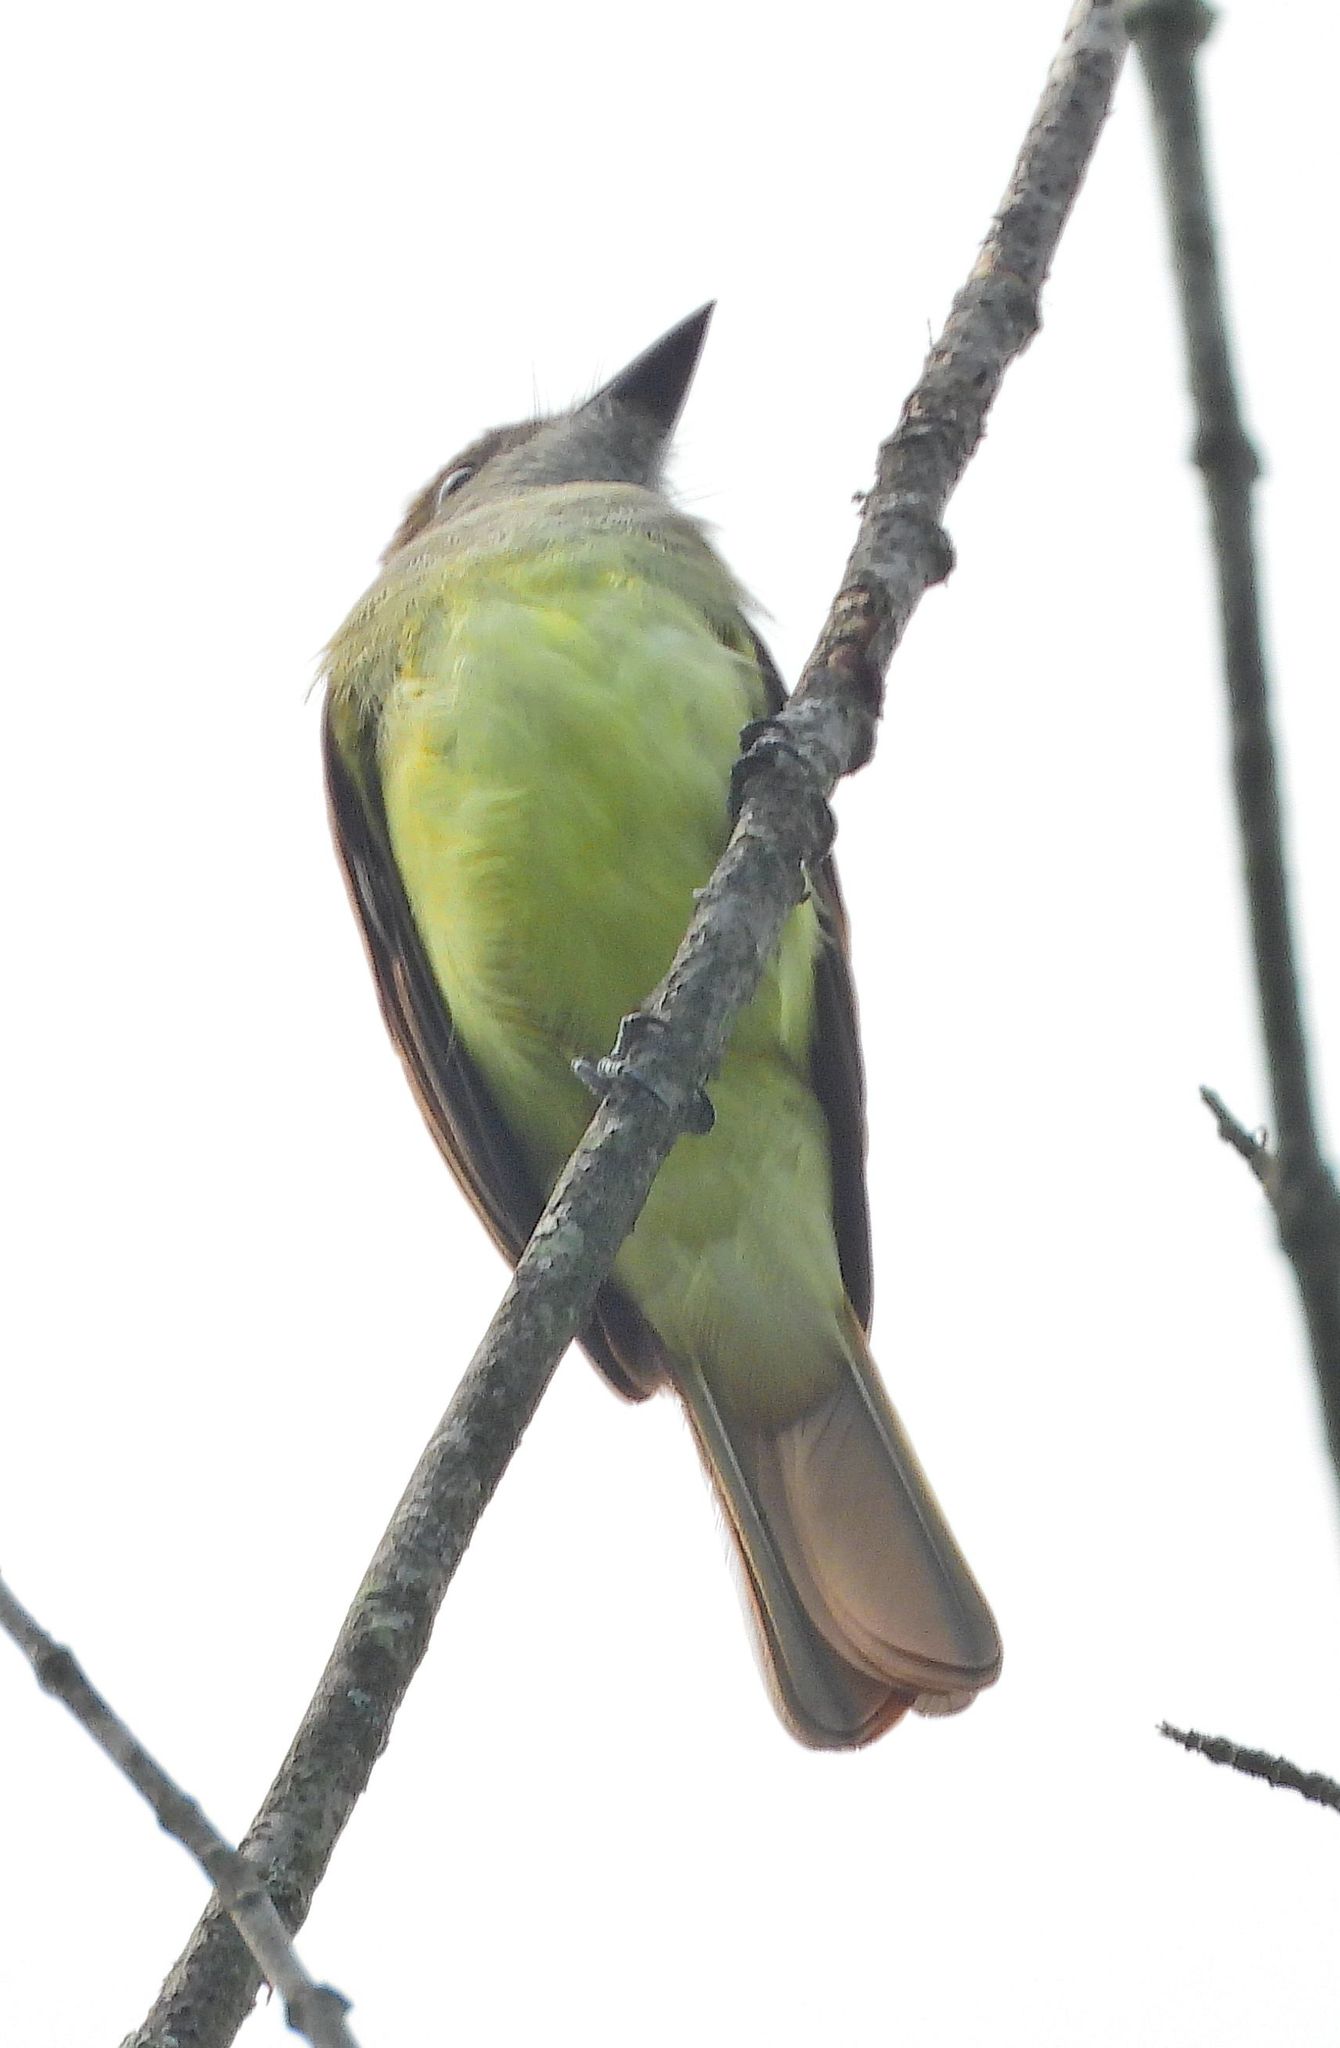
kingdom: Animalia
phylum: Chordata
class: Aves
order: Passeriformes
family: Tyrannidae
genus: Myiarchus
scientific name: Myiarchus crinitus
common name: Great crested flycatcher
